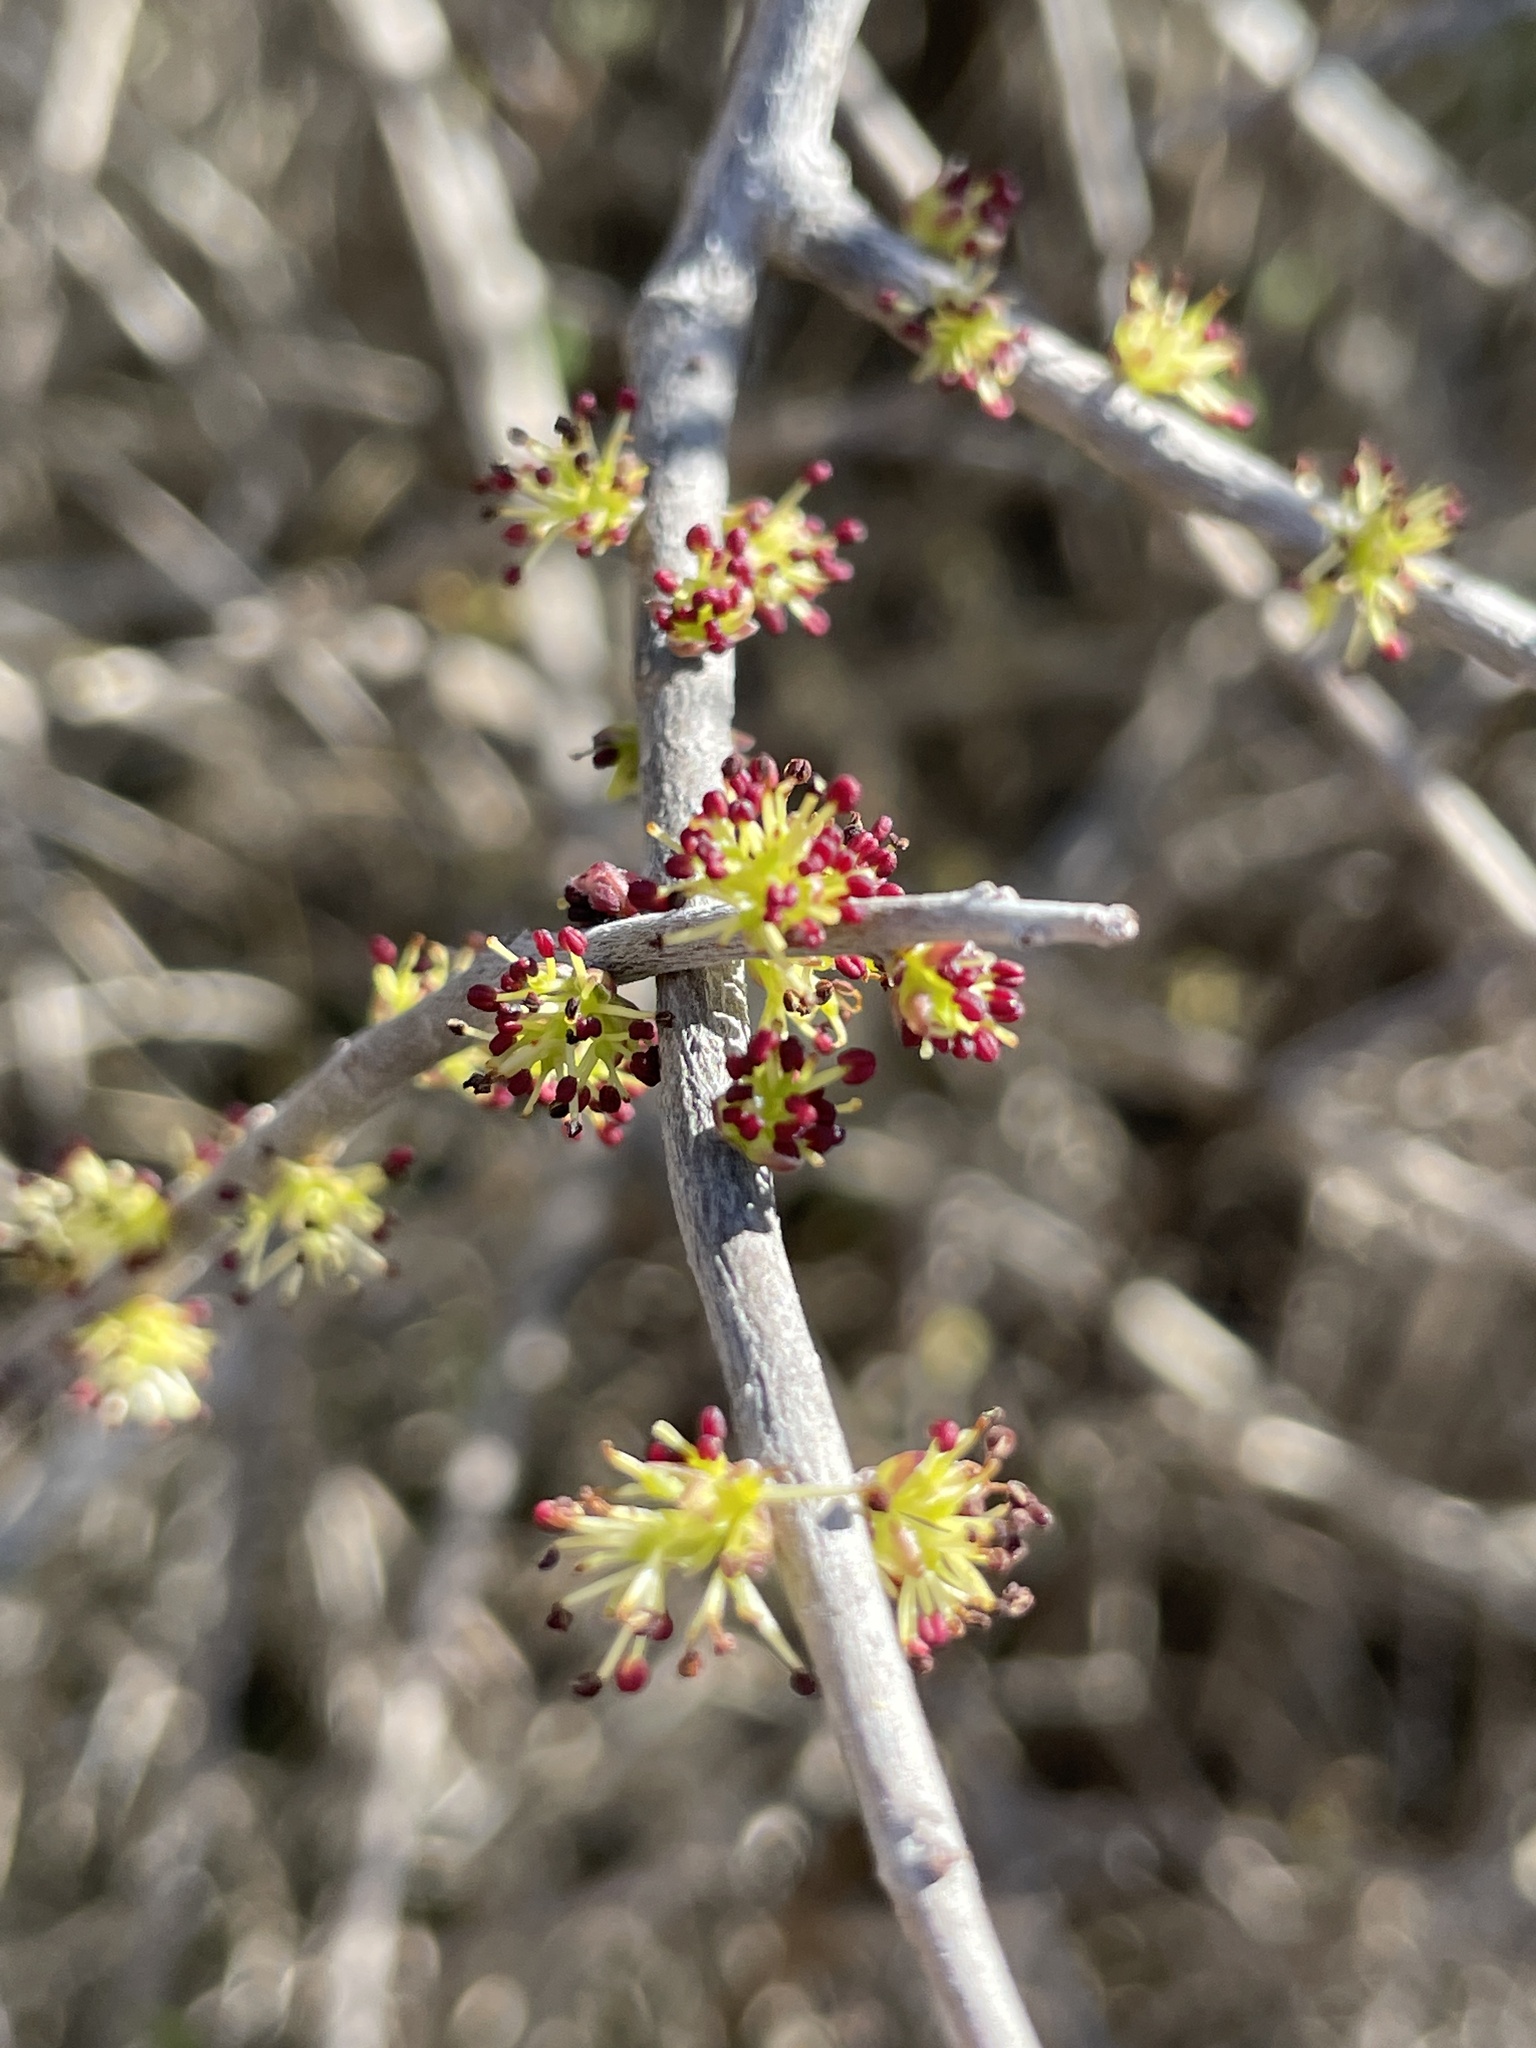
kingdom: Plantae
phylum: Tracheophyta
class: Magnoliopsida
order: Lamiales
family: Oleaceae
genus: Forestiera
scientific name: Forestiera angustifolia
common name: Elbowbush
